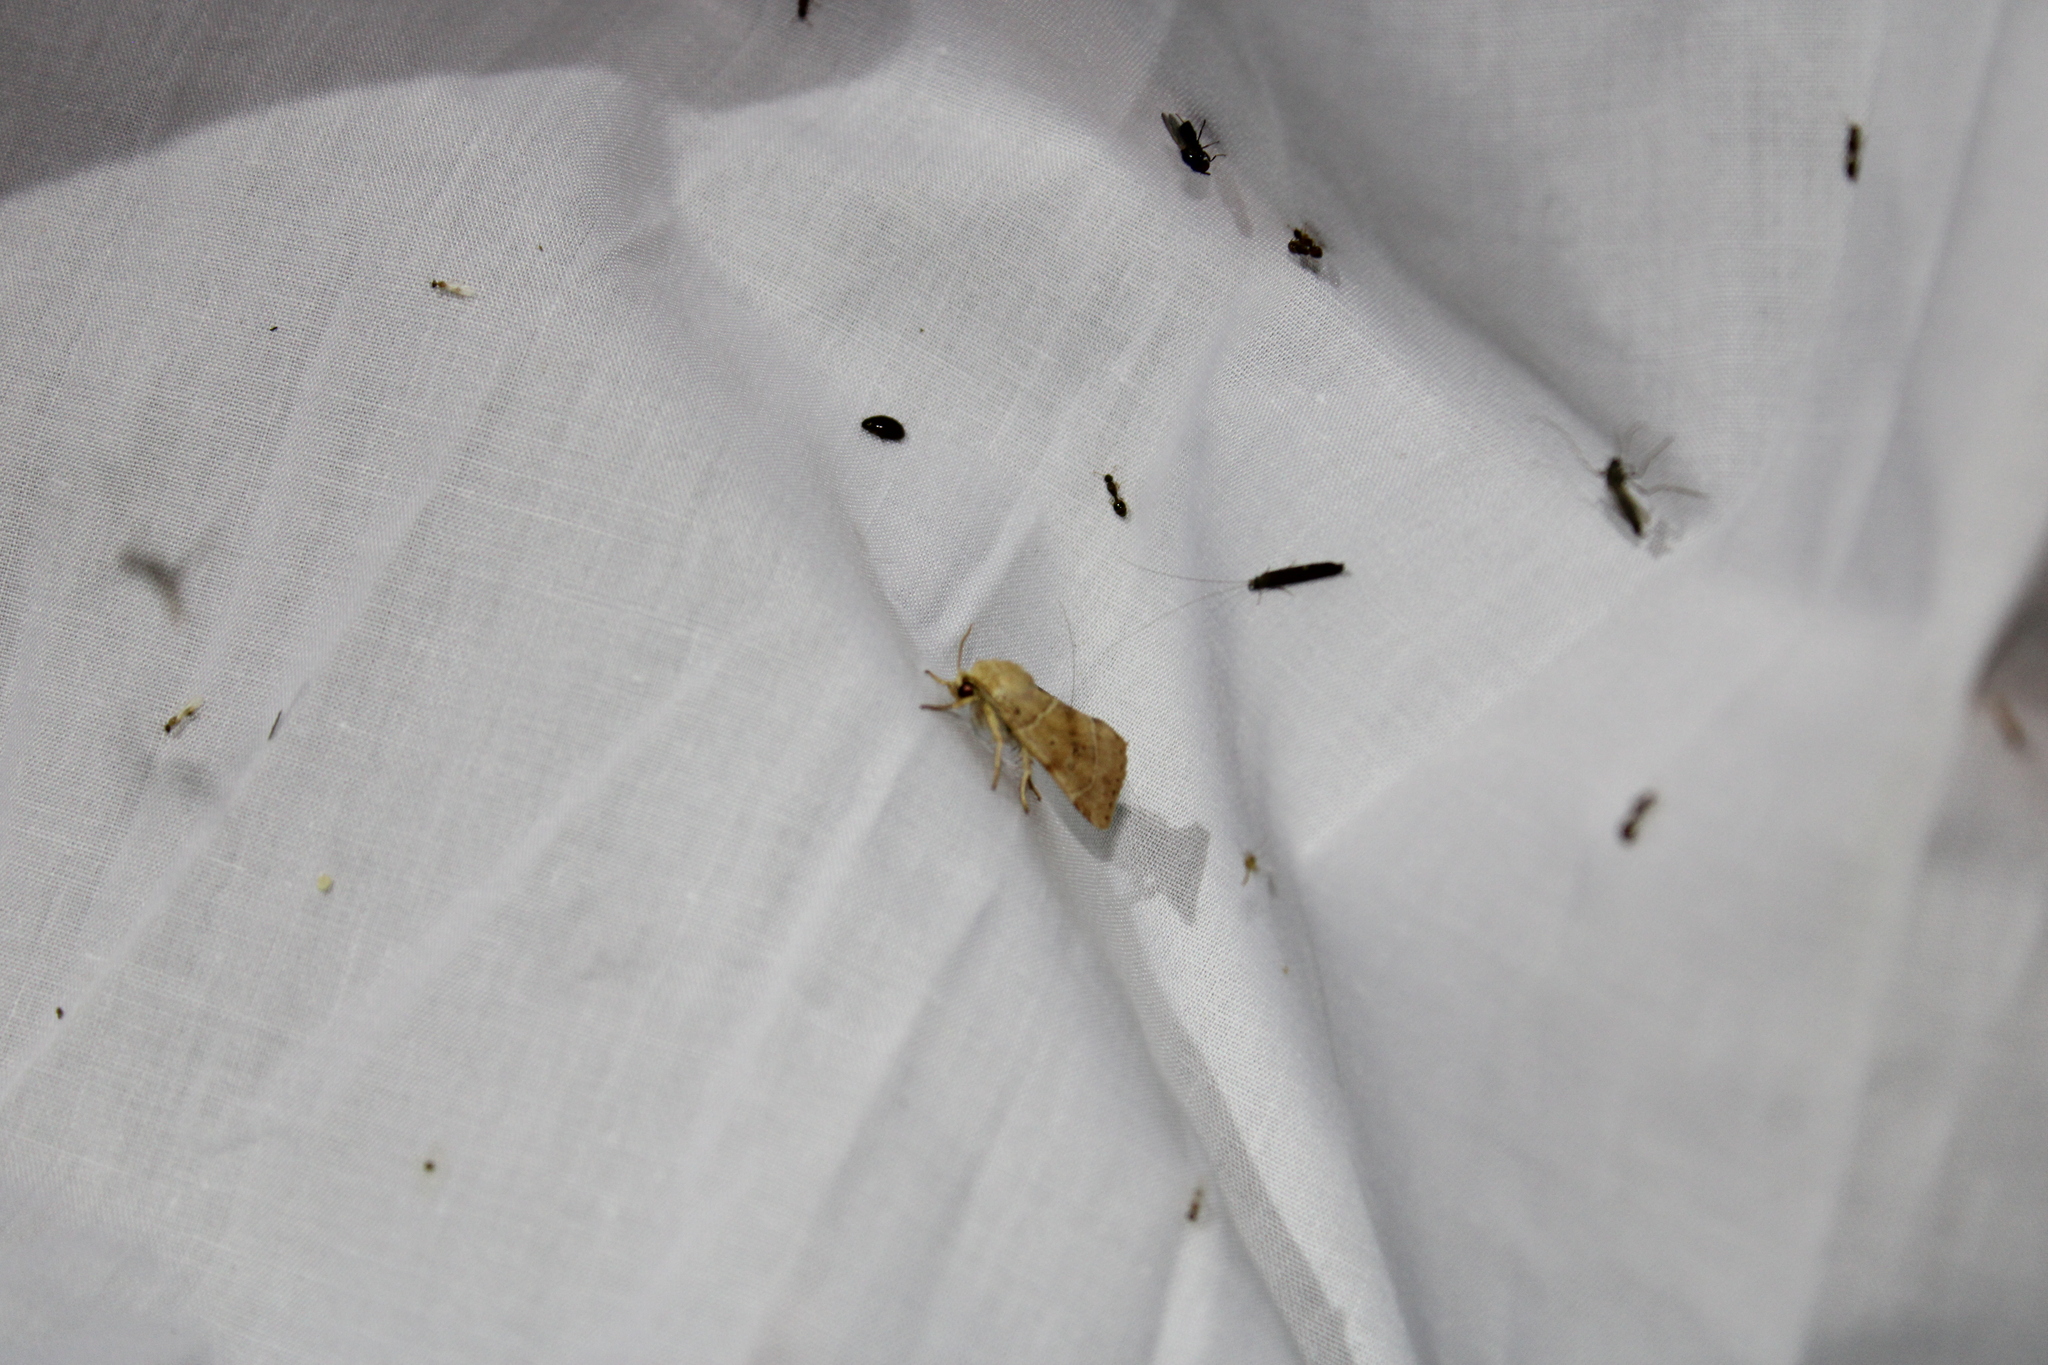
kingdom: Animalia
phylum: Arthropoda
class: Insecta
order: Lepidoptera
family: Noctuidae
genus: Cosmia
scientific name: Cosmia calami
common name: American dun-bar moth
